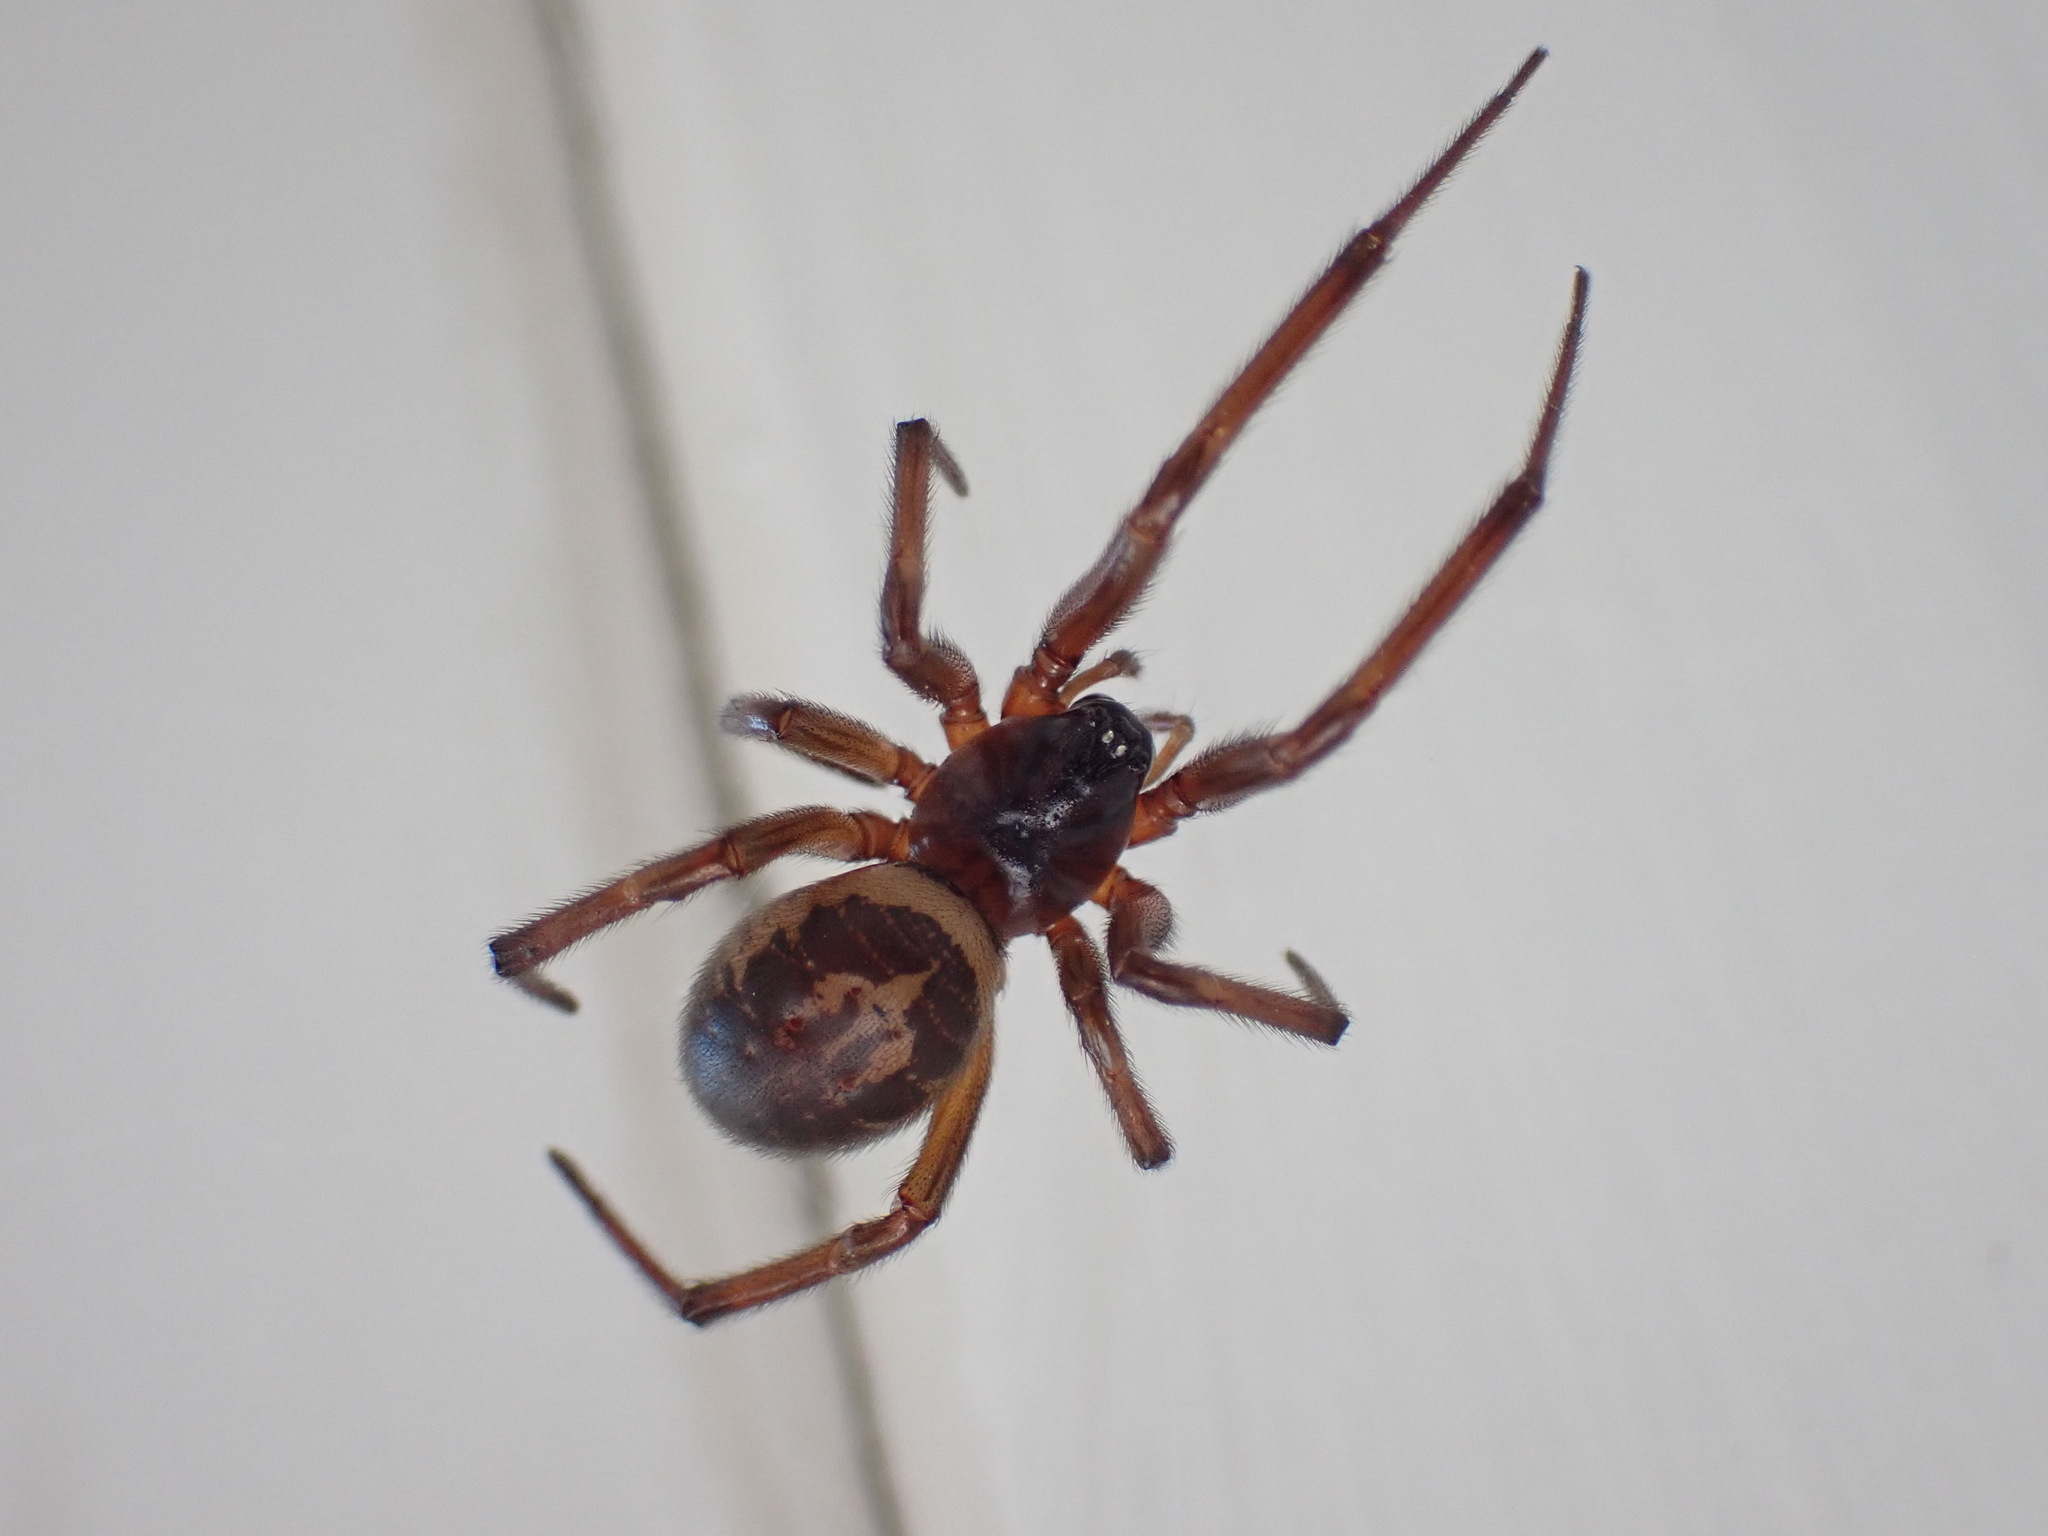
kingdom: Animalia
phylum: Arthropoda
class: Arachnida
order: Araneae
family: Theridiidae
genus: Steatoda
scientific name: Steatoda nobilis
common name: Cobweb weaver
